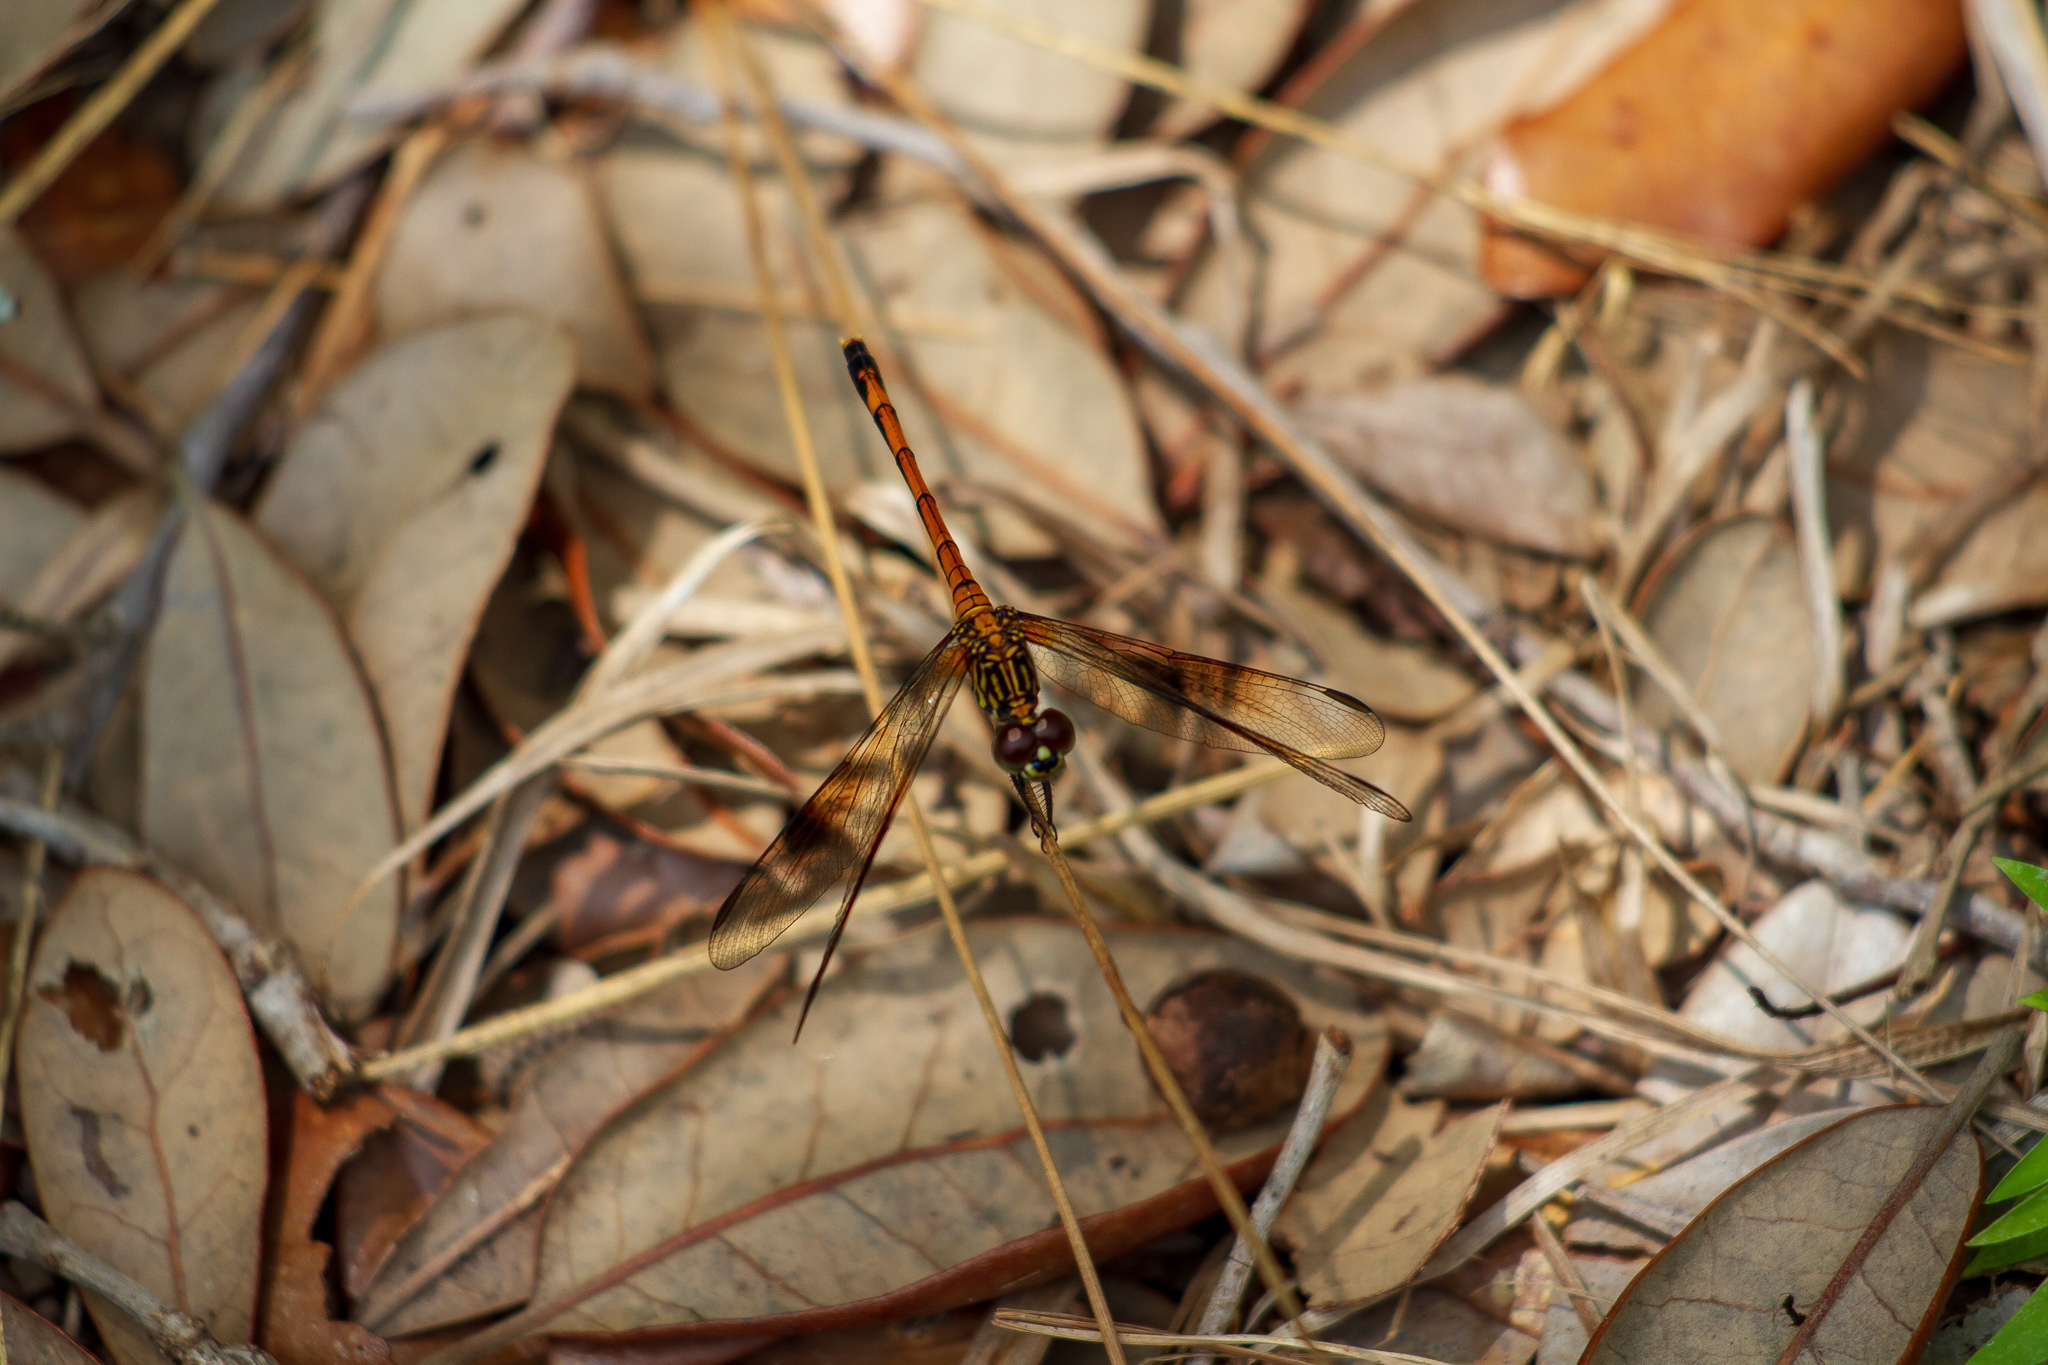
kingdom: Animalia
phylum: Arthropoda
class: Insecta
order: Odonata
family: Libellulidae
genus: Erythrodiplax
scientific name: Erythrodiplax berenice
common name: Seaside dragonlet
